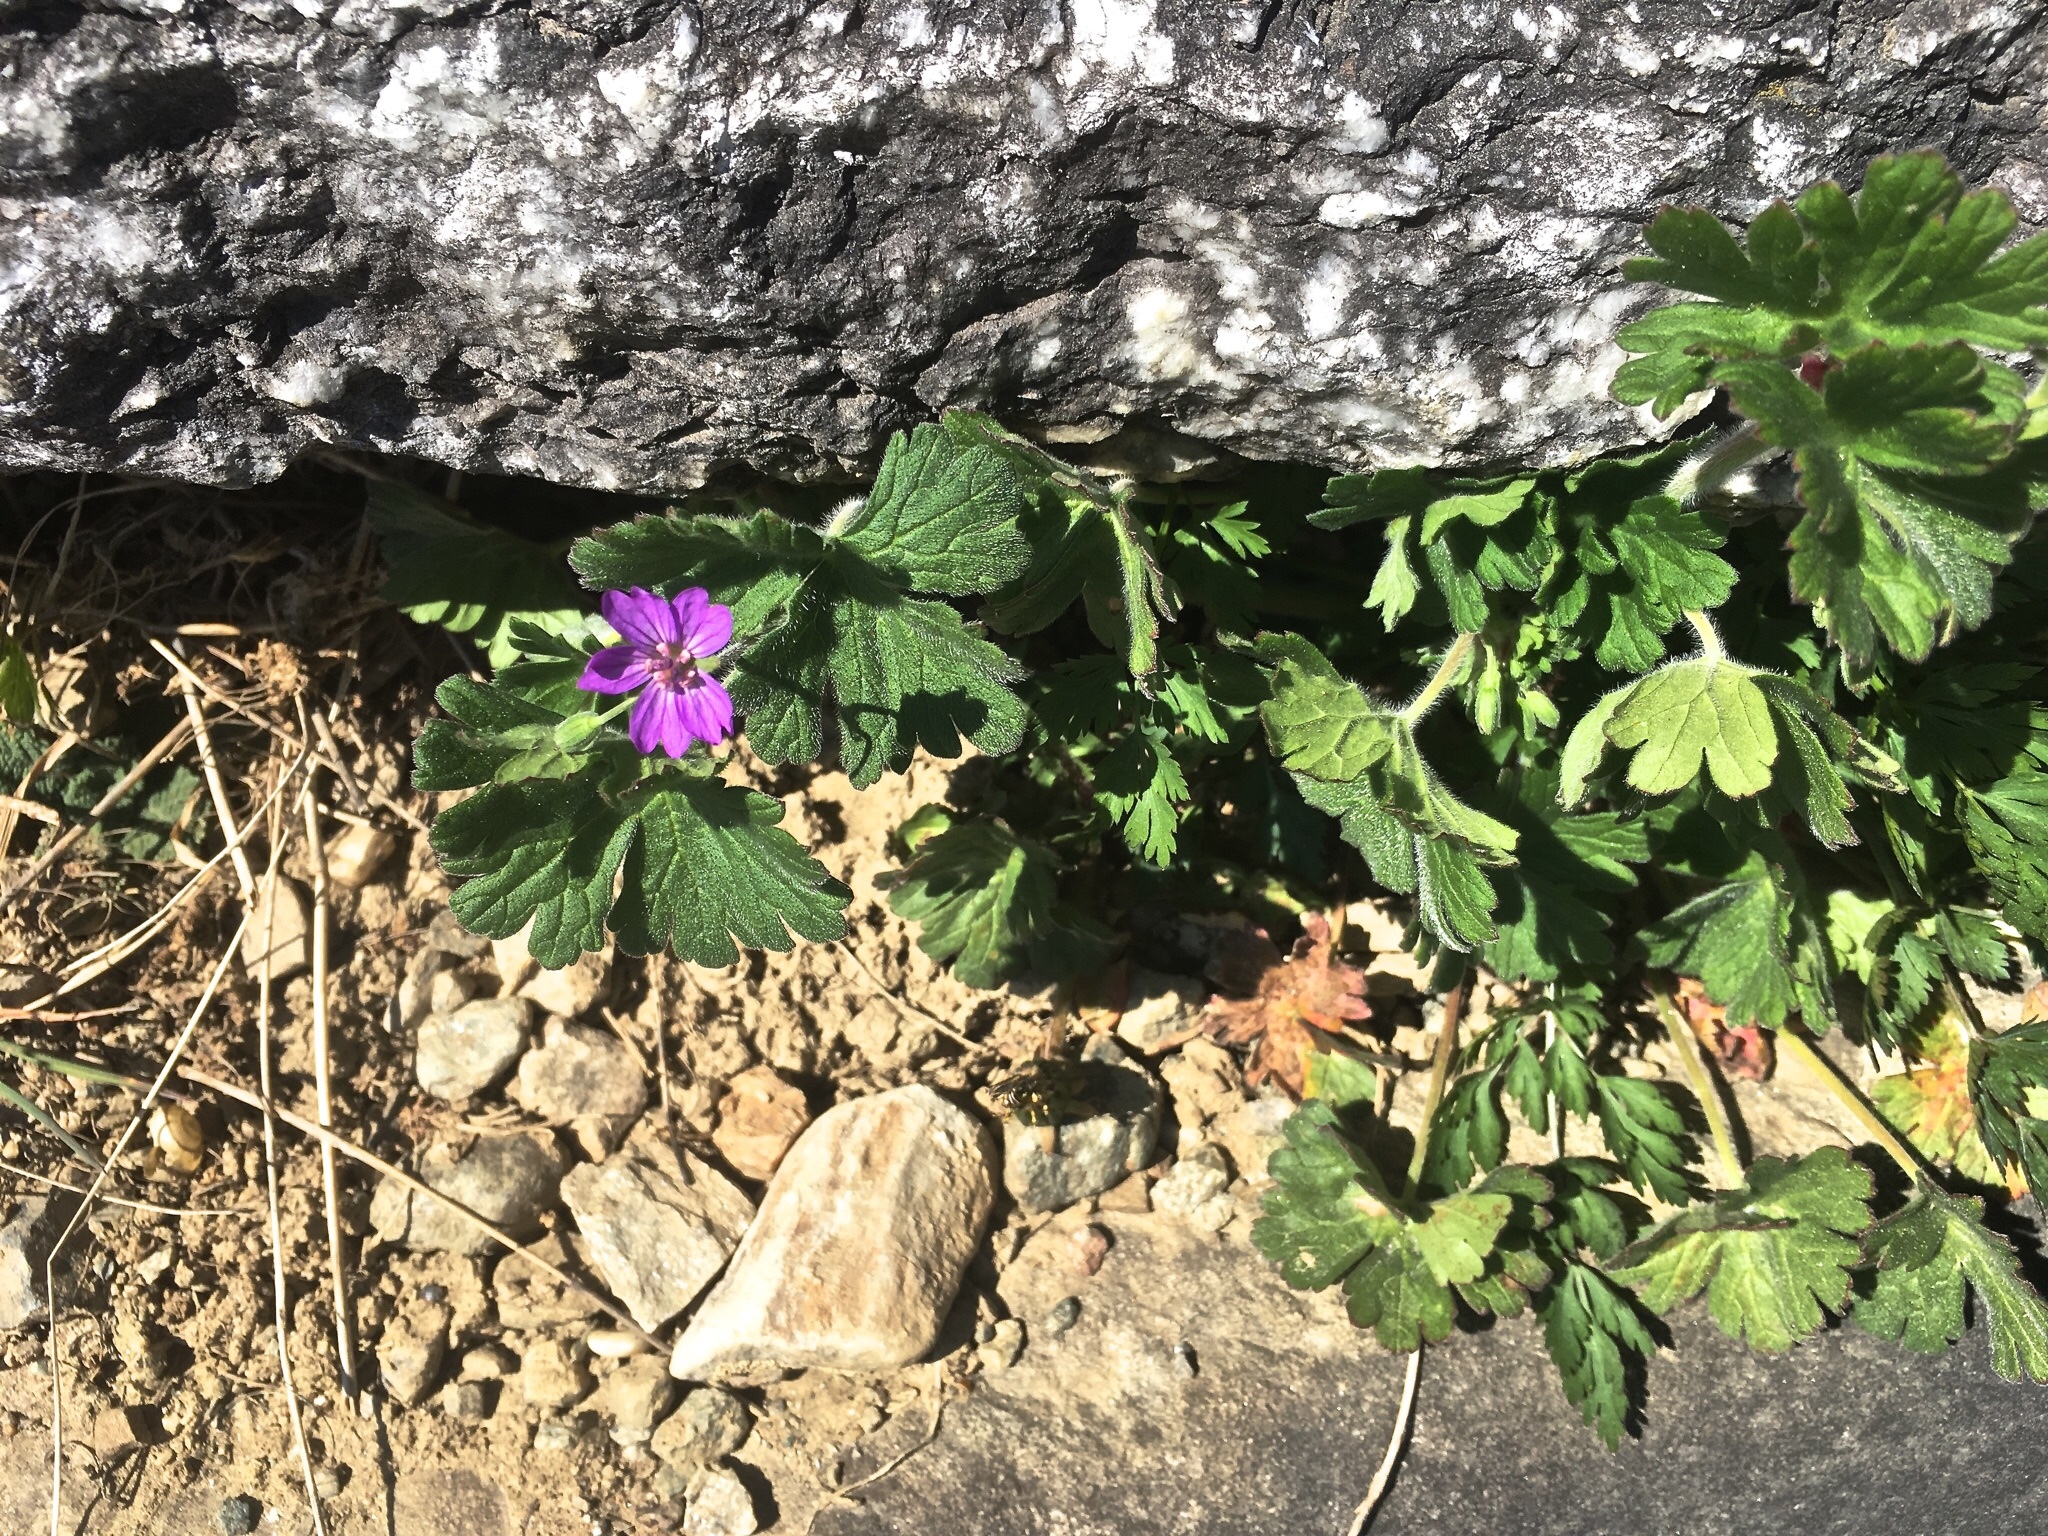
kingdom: Plantae
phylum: Tracheophyta
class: Magnoliopsida
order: Geraniales
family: Geraniaceae
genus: Geranium
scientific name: Geranium pyrenaicum
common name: Hedgerow crane's-bill
